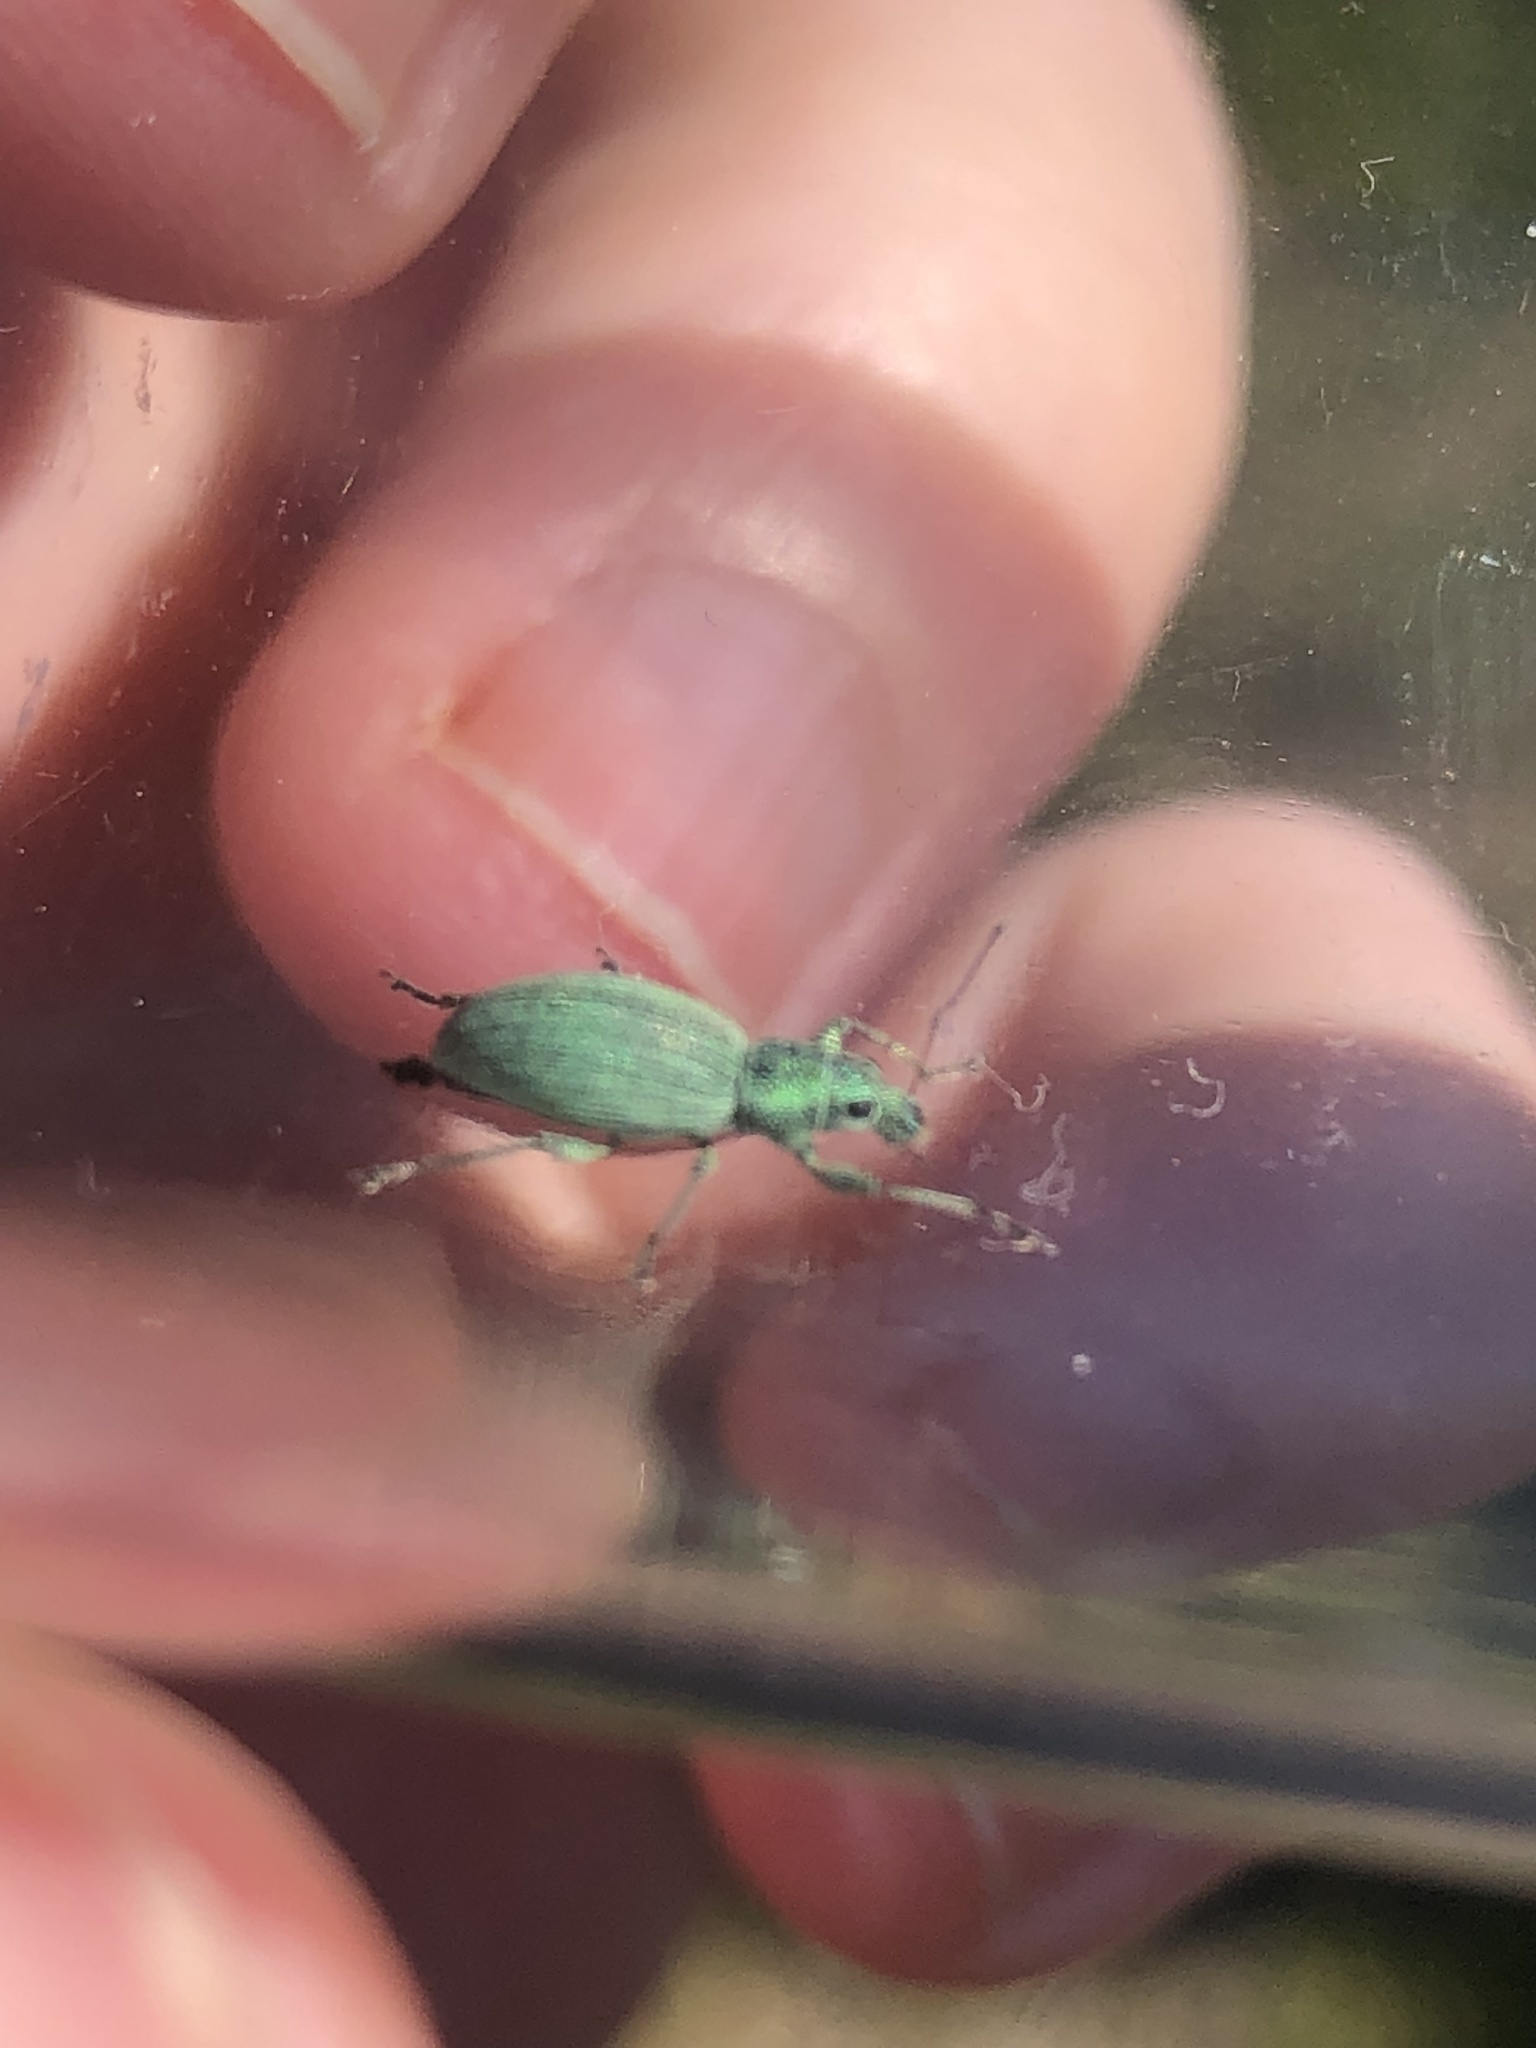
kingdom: Animalia
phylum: Arthropoda
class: Insecta
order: Coleoptera
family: Curculionidae
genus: Eusomus
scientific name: Eusomus ovulum
